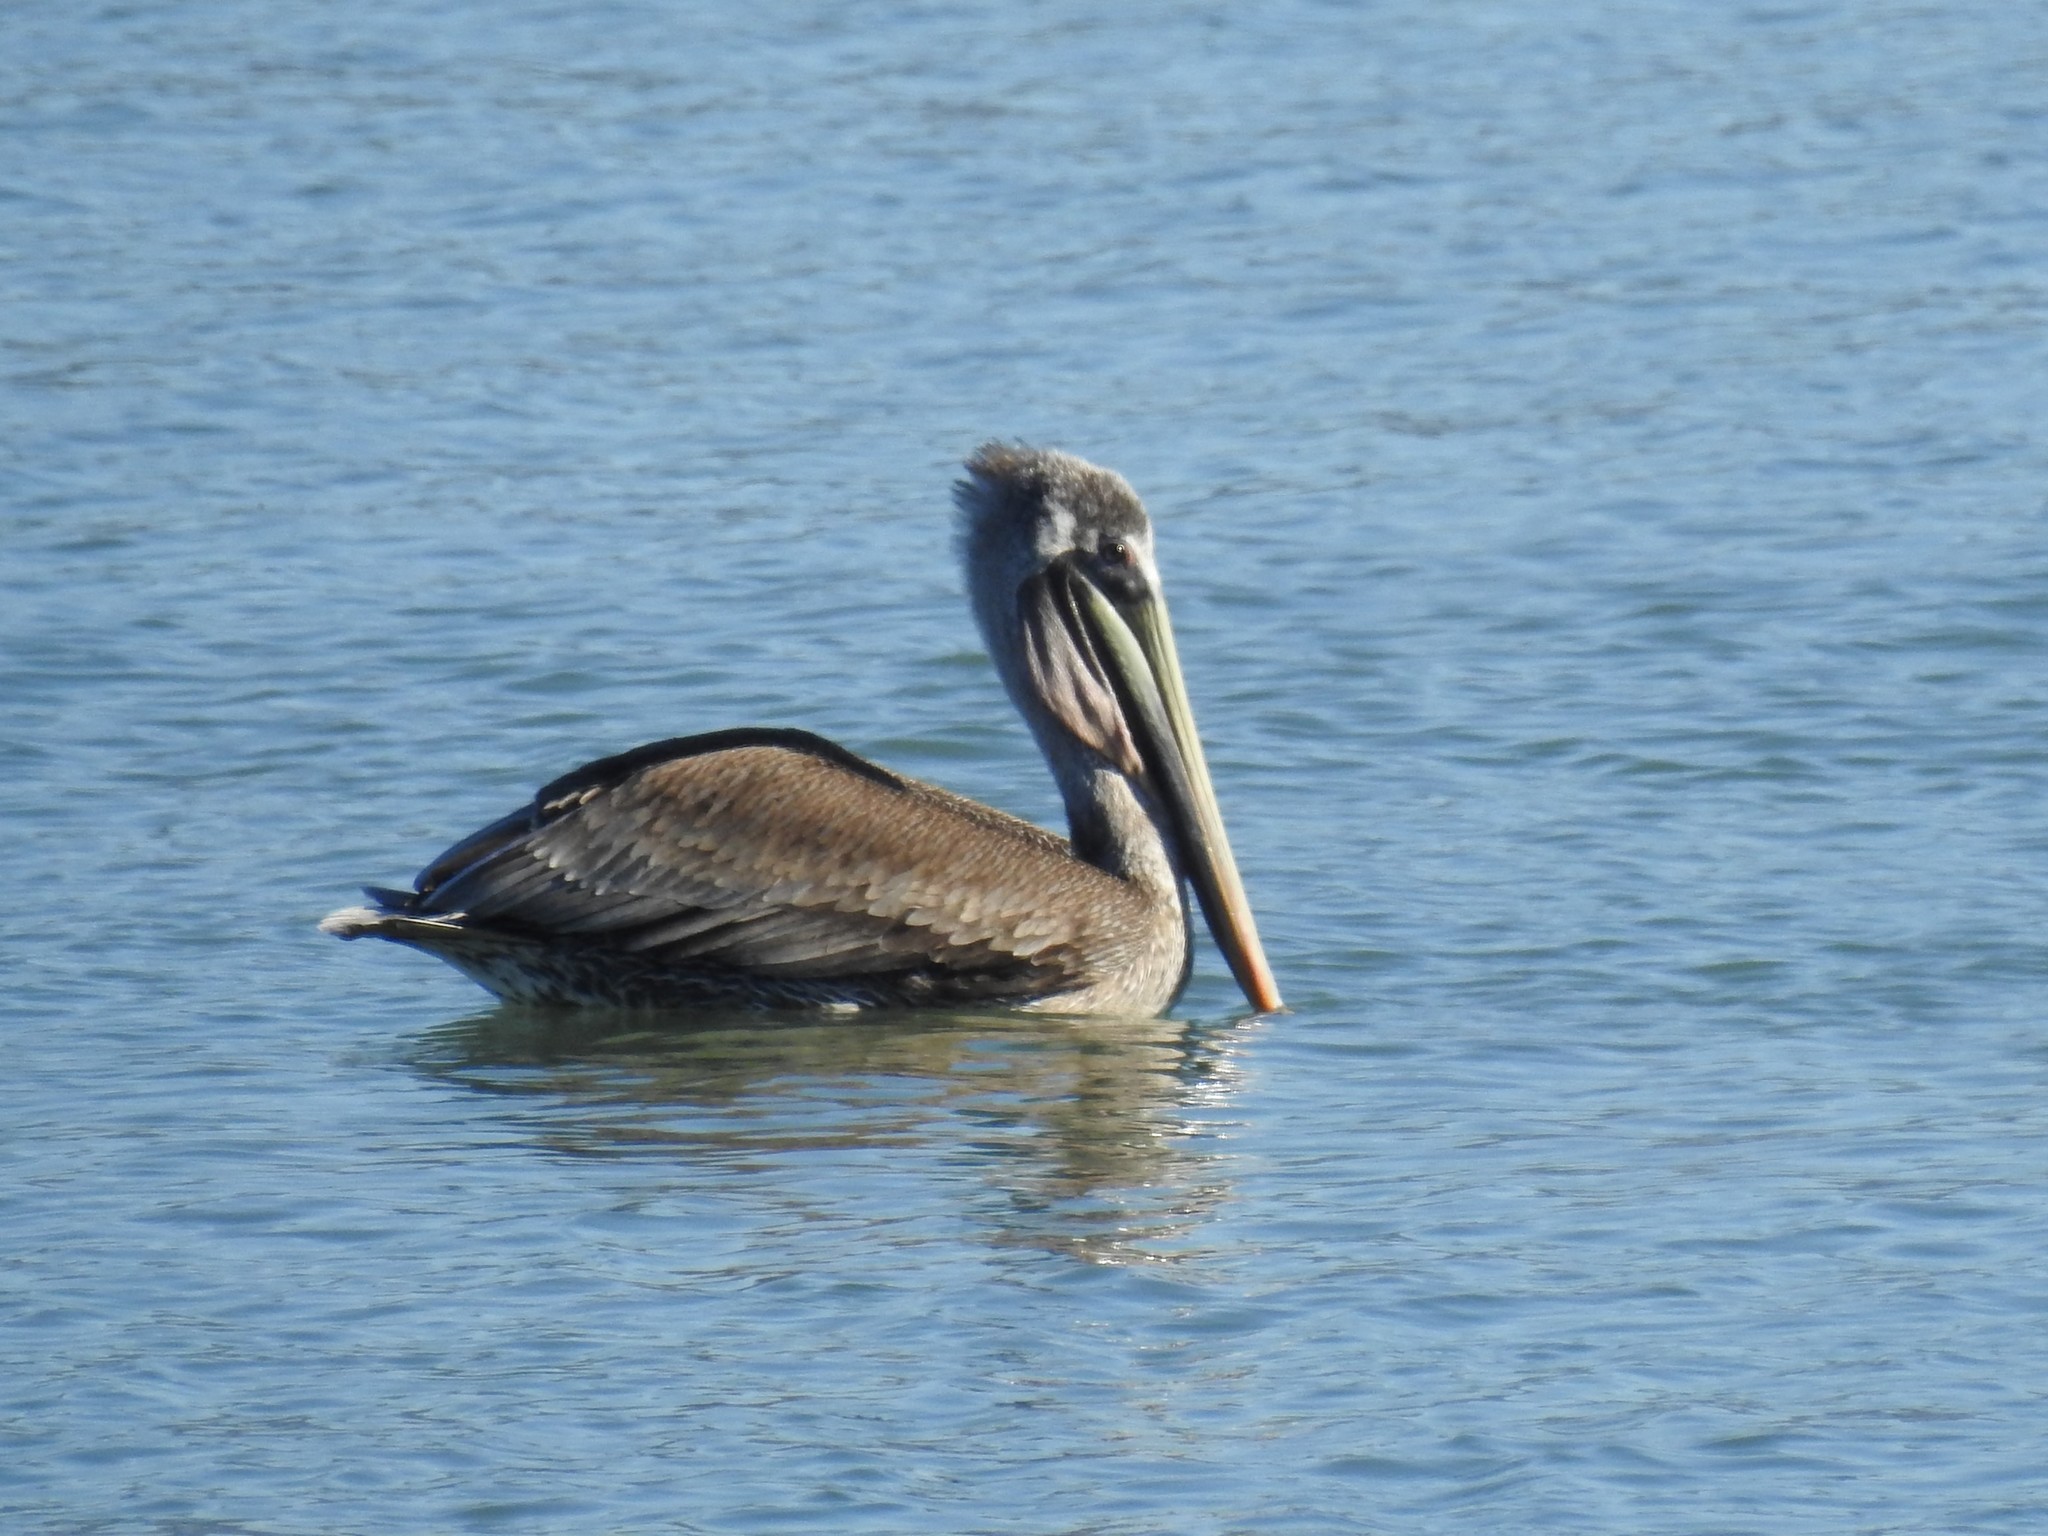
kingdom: Animalia
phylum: Chordata
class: Aves
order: Pelecaniformes
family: Pelecanidae
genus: Pelecanus
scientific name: Pelecanus occidentalis
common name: Brown pelican
